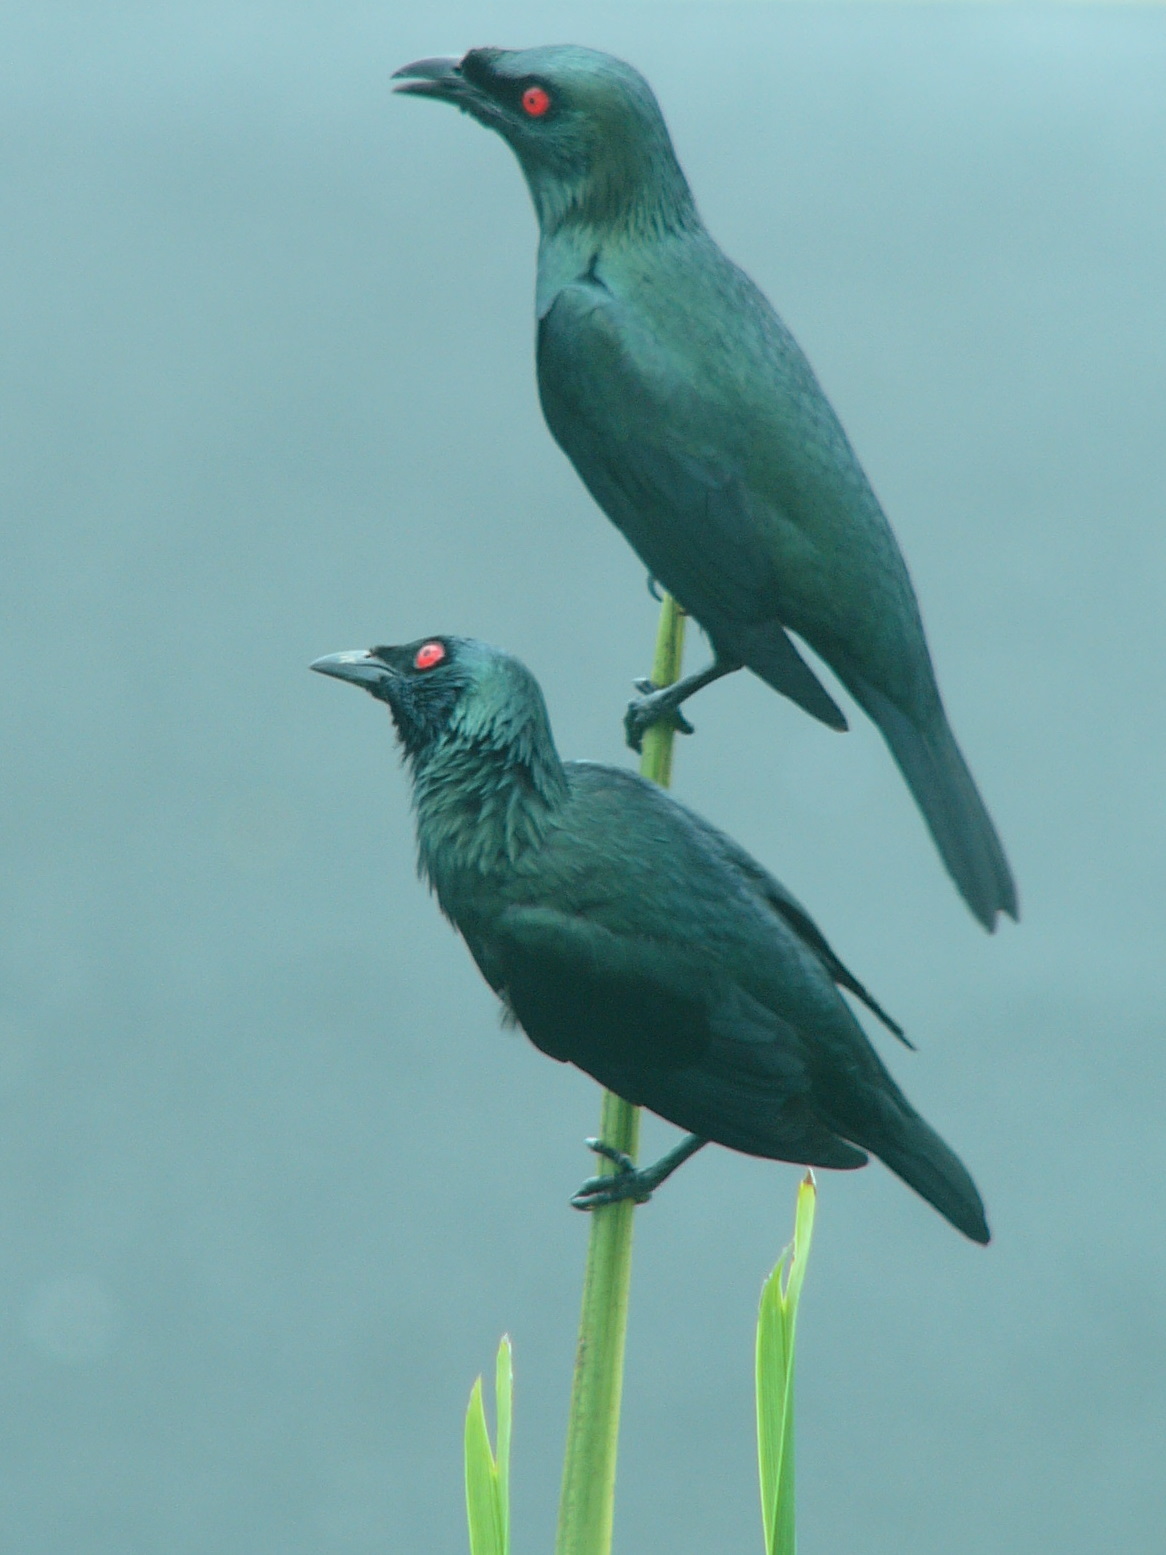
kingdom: Animalia
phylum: Chordata
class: Aves
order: Passeriformes
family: Sturnidae
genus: Aplonis
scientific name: Aplonis panayensis
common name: Asian glossy starling
